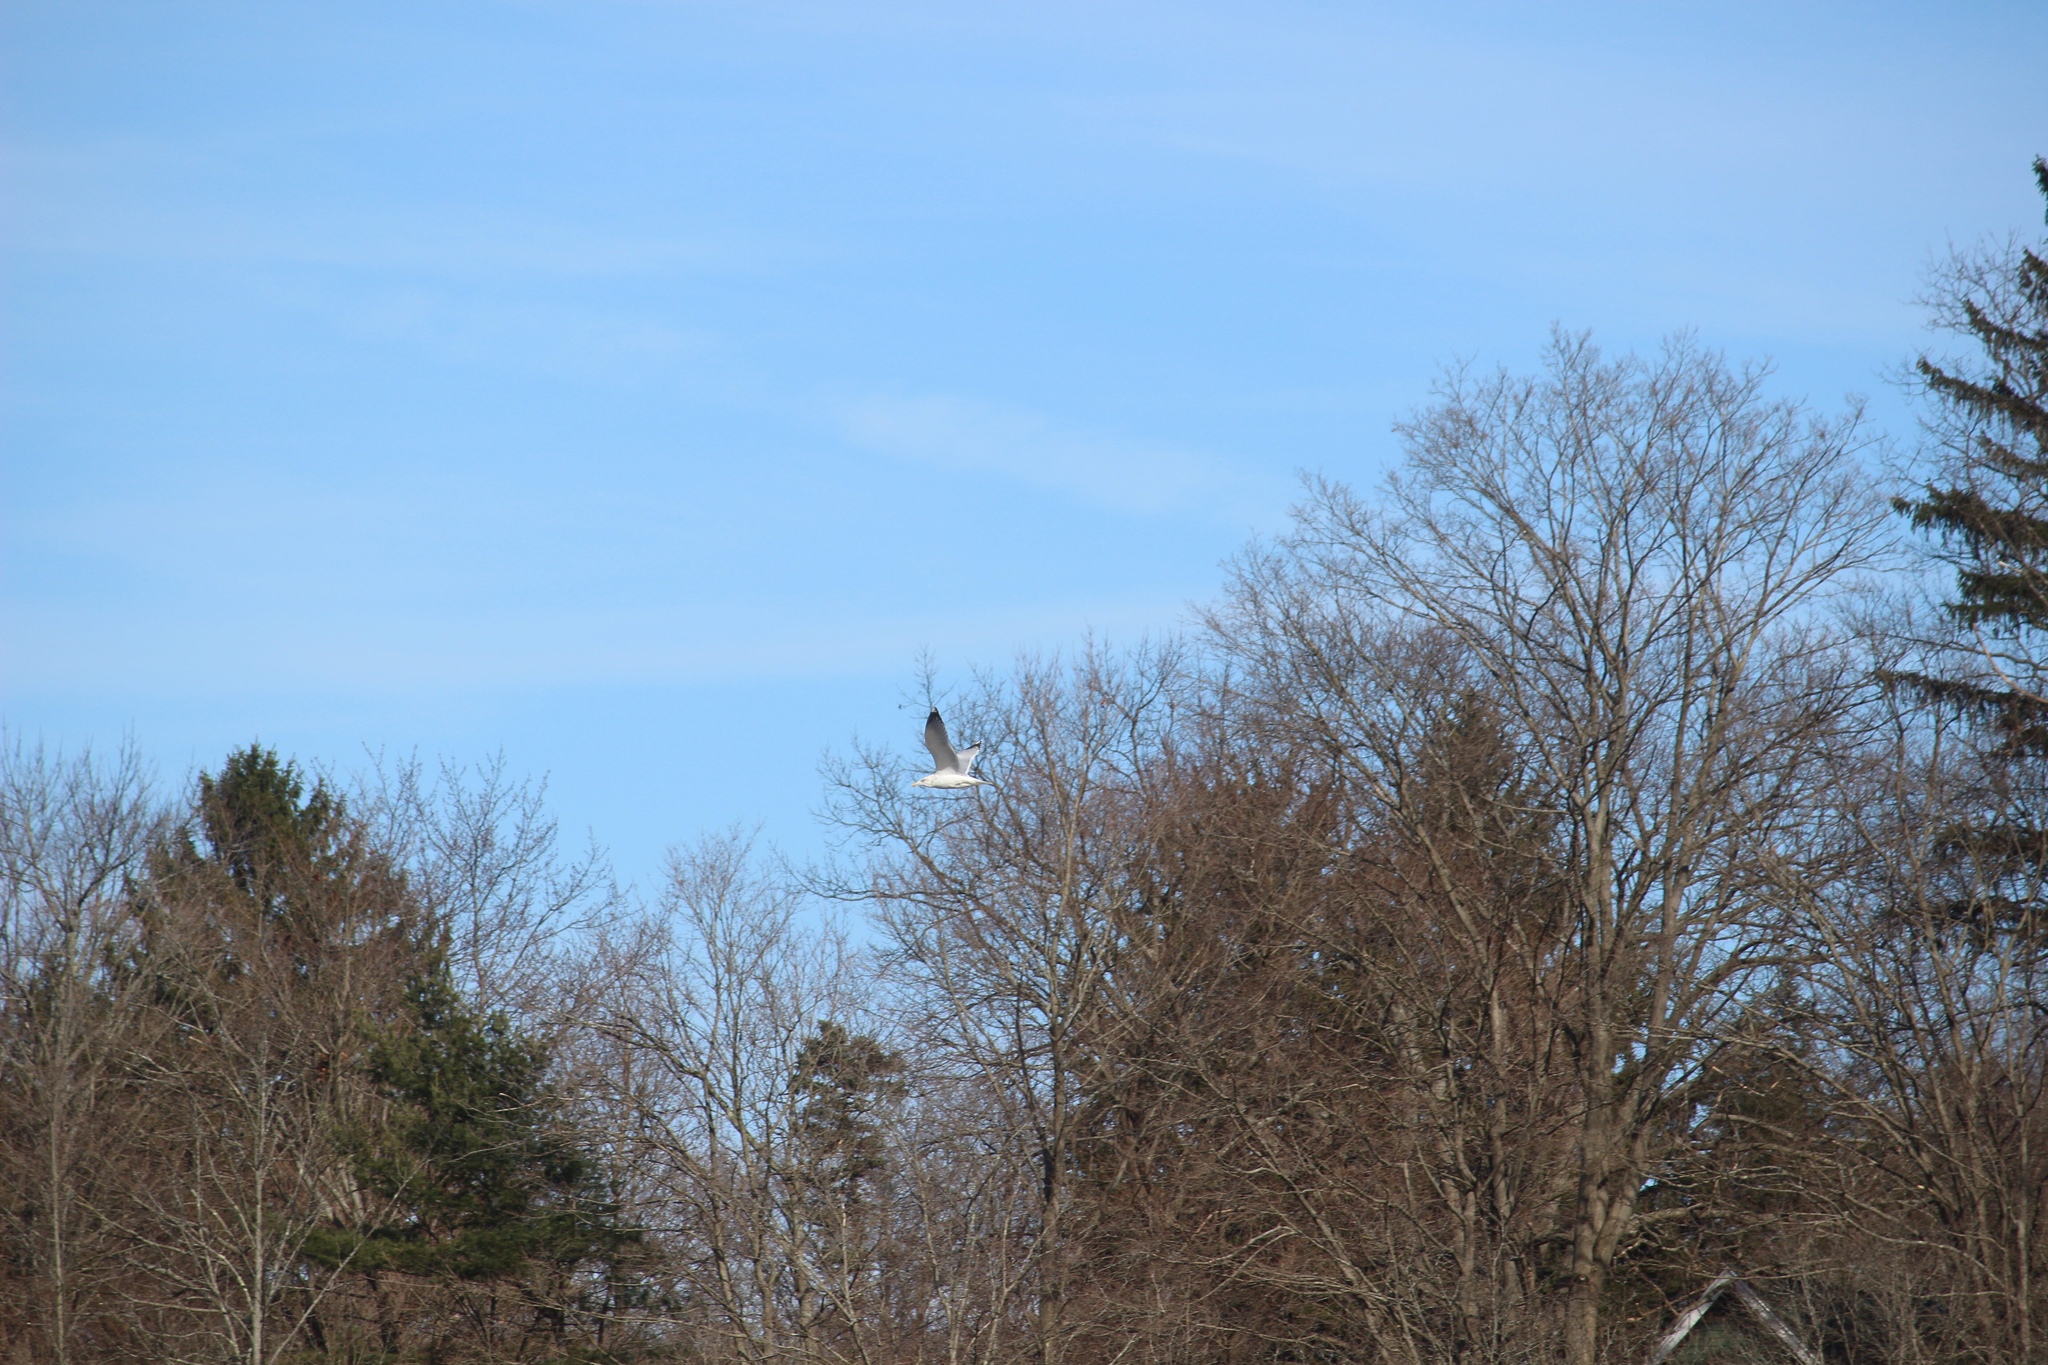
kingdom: Animalia
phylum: Chordata
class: Aves
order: Charadriiformes
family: Laridae
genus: Larus
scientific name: Larus argentatus
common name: Herring gull
